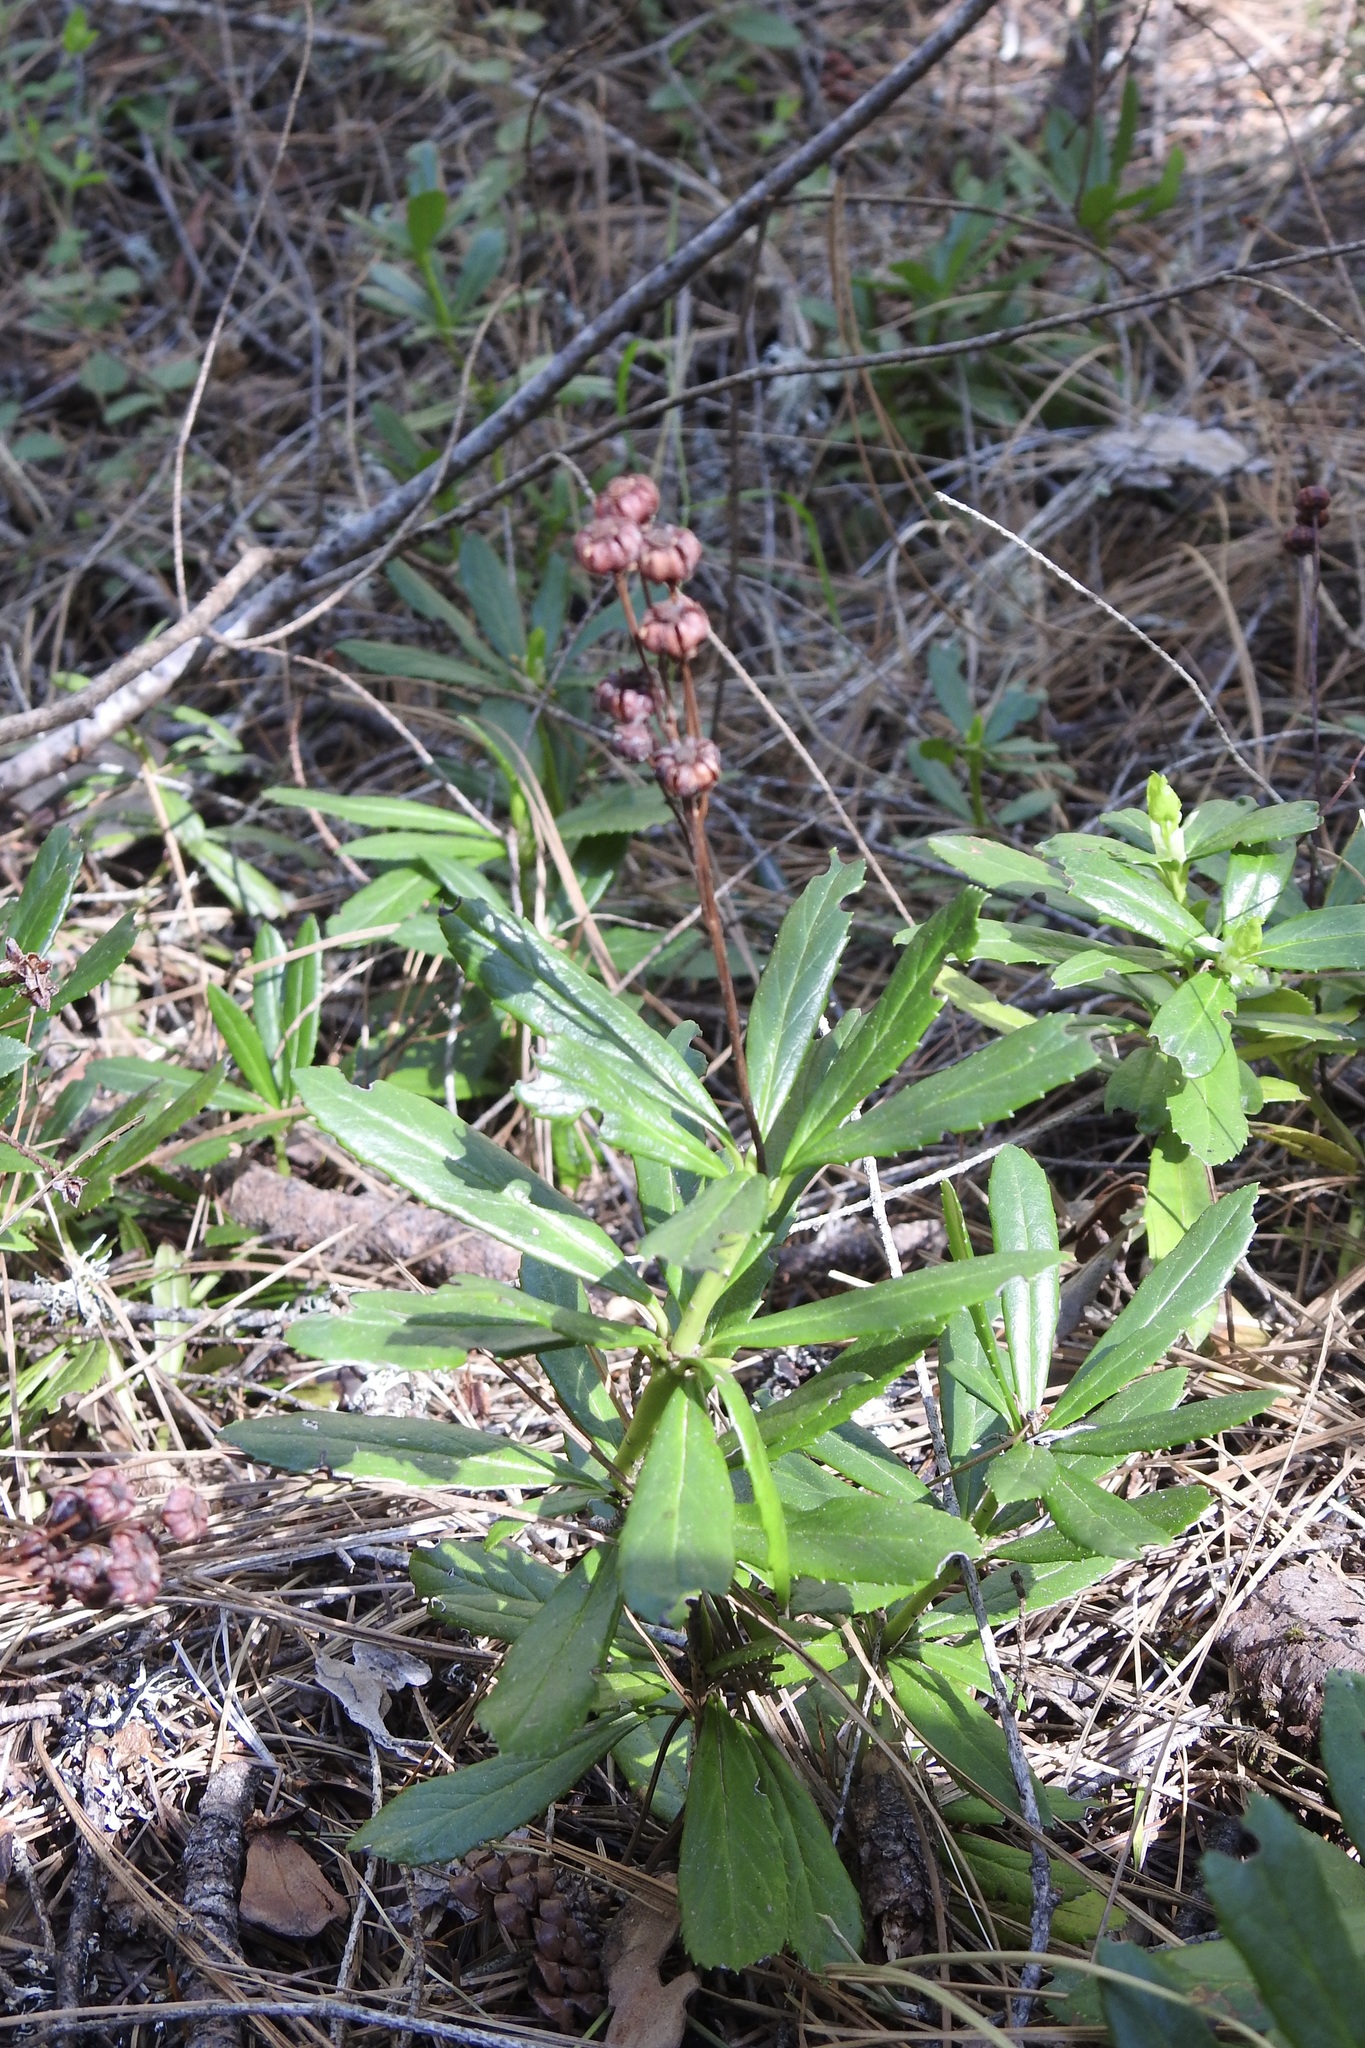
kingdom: Plantae
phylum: Tracheophyta
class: Magnoliopsida
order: Ericales
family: Ericaceae
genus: Chimaphila
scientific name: Chimaphila umbellata
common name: Pipsissewa
